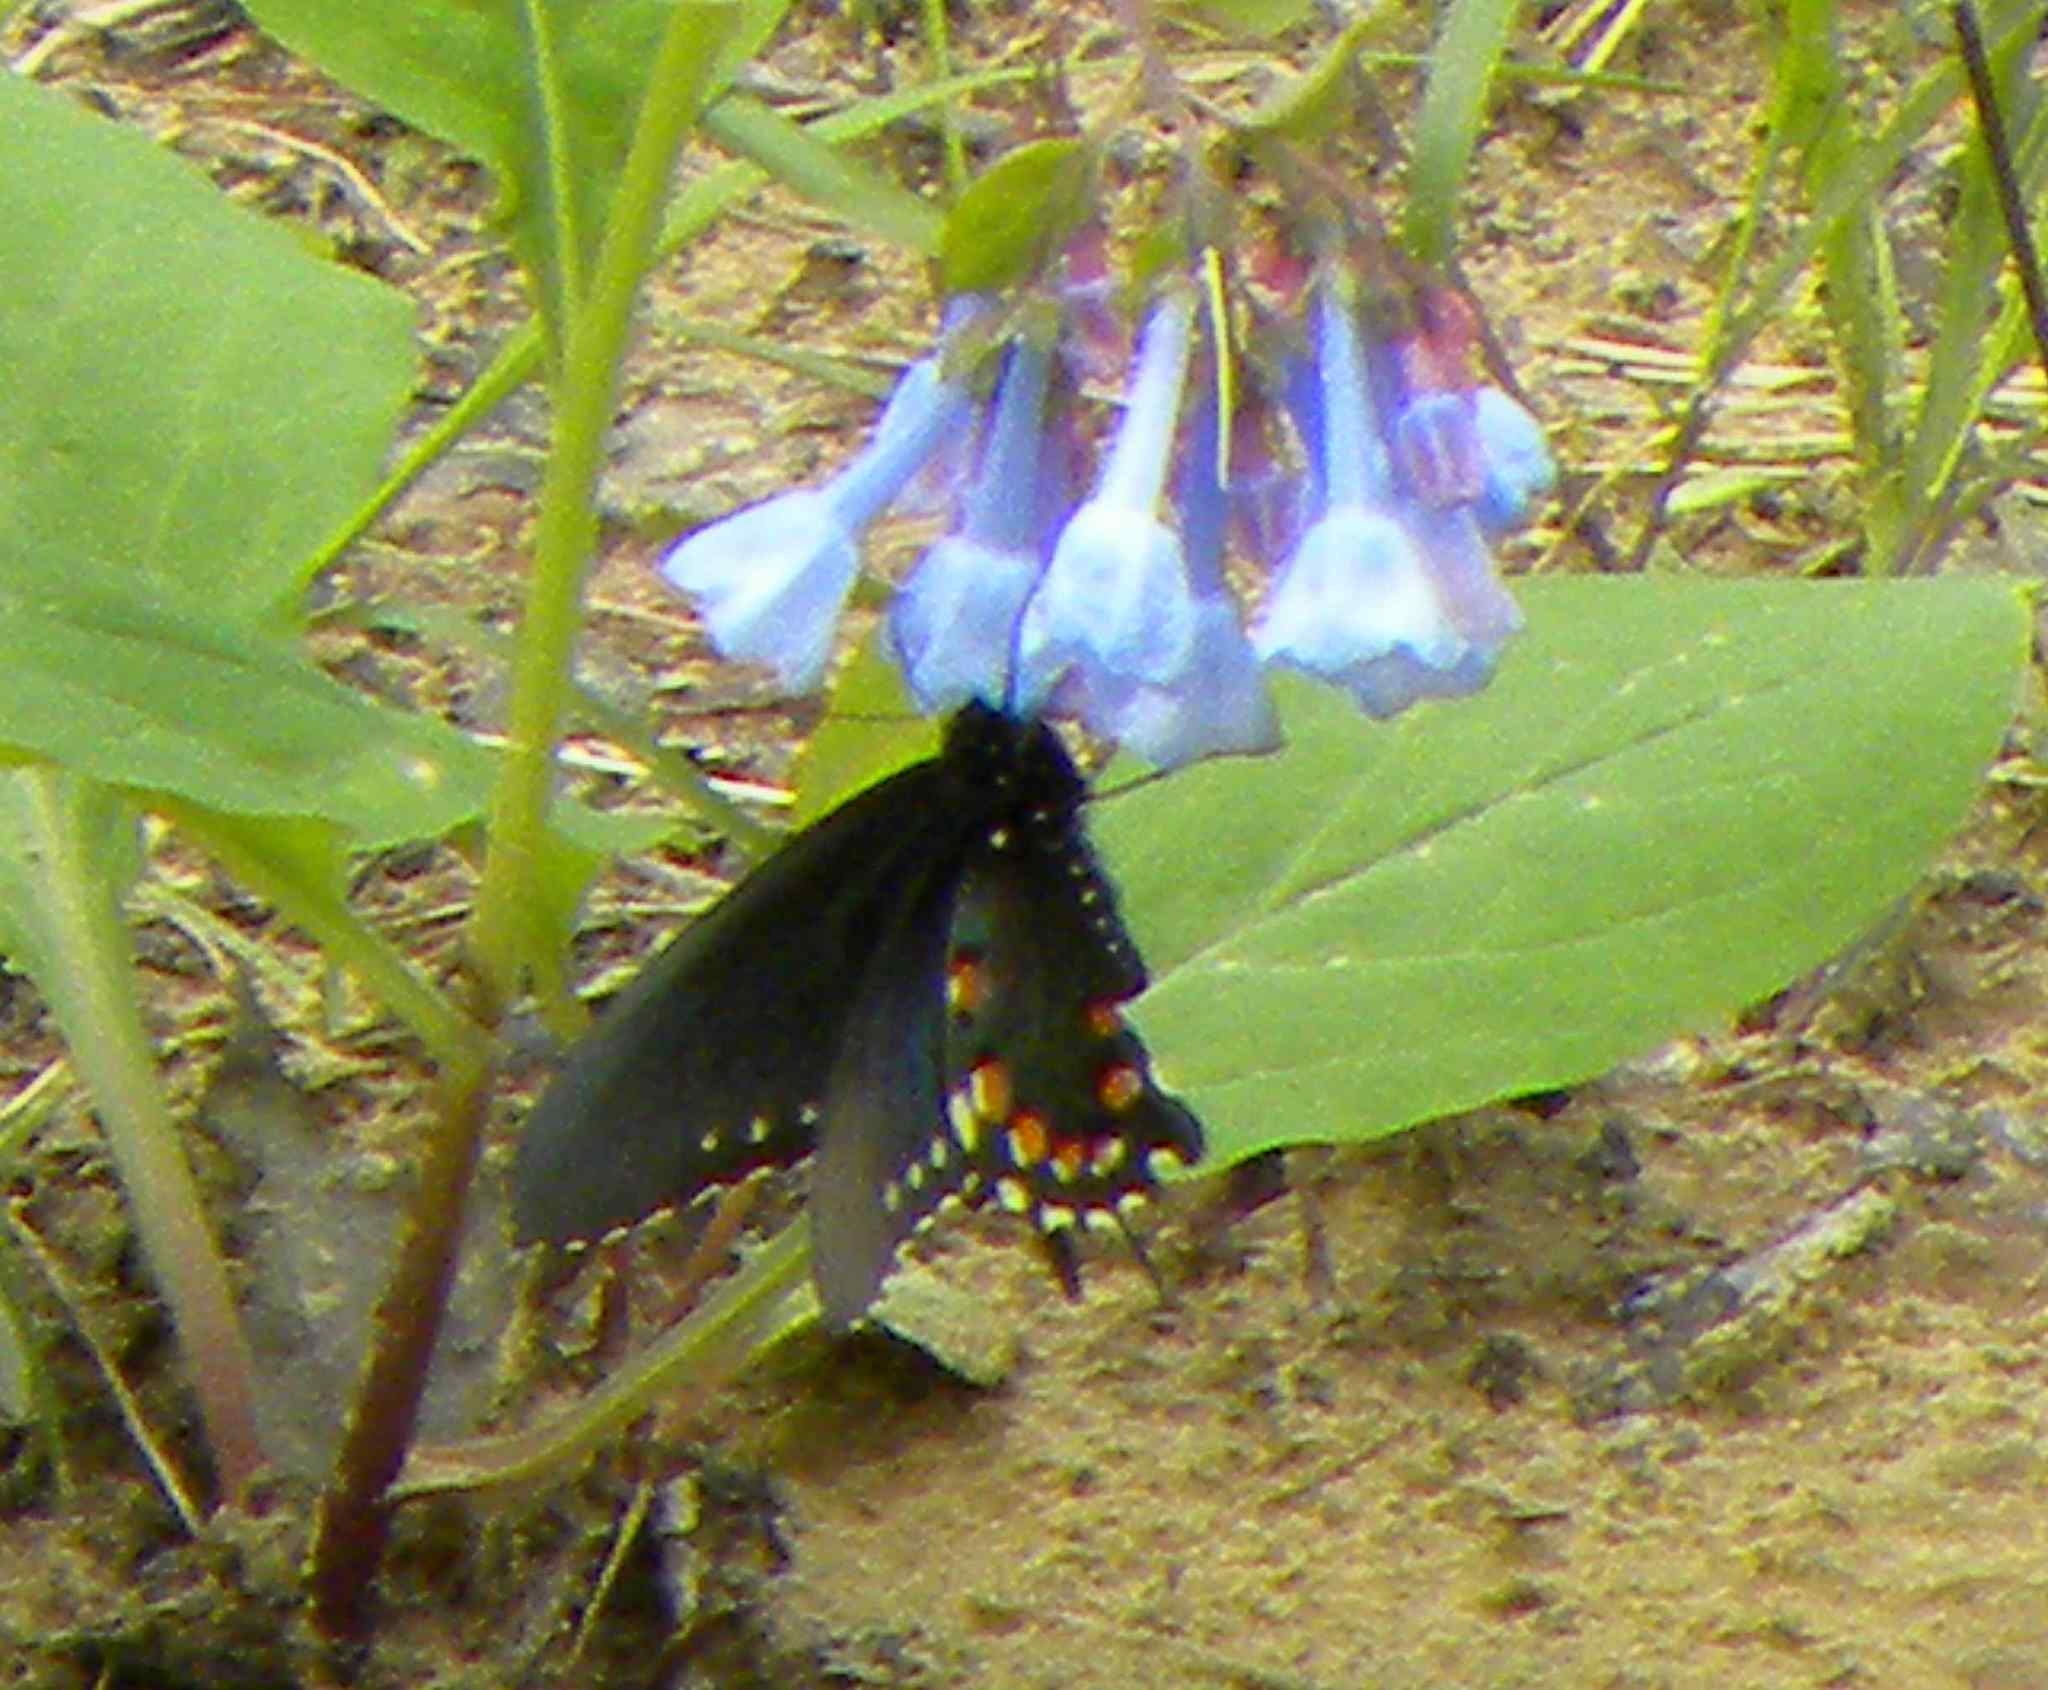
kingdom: Animalia
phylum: Arthropoda
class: Insecta
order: Lepidoptera
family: Papilionidae
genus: Battus
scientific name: Battus philenor
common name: Pipevine swallowtail
